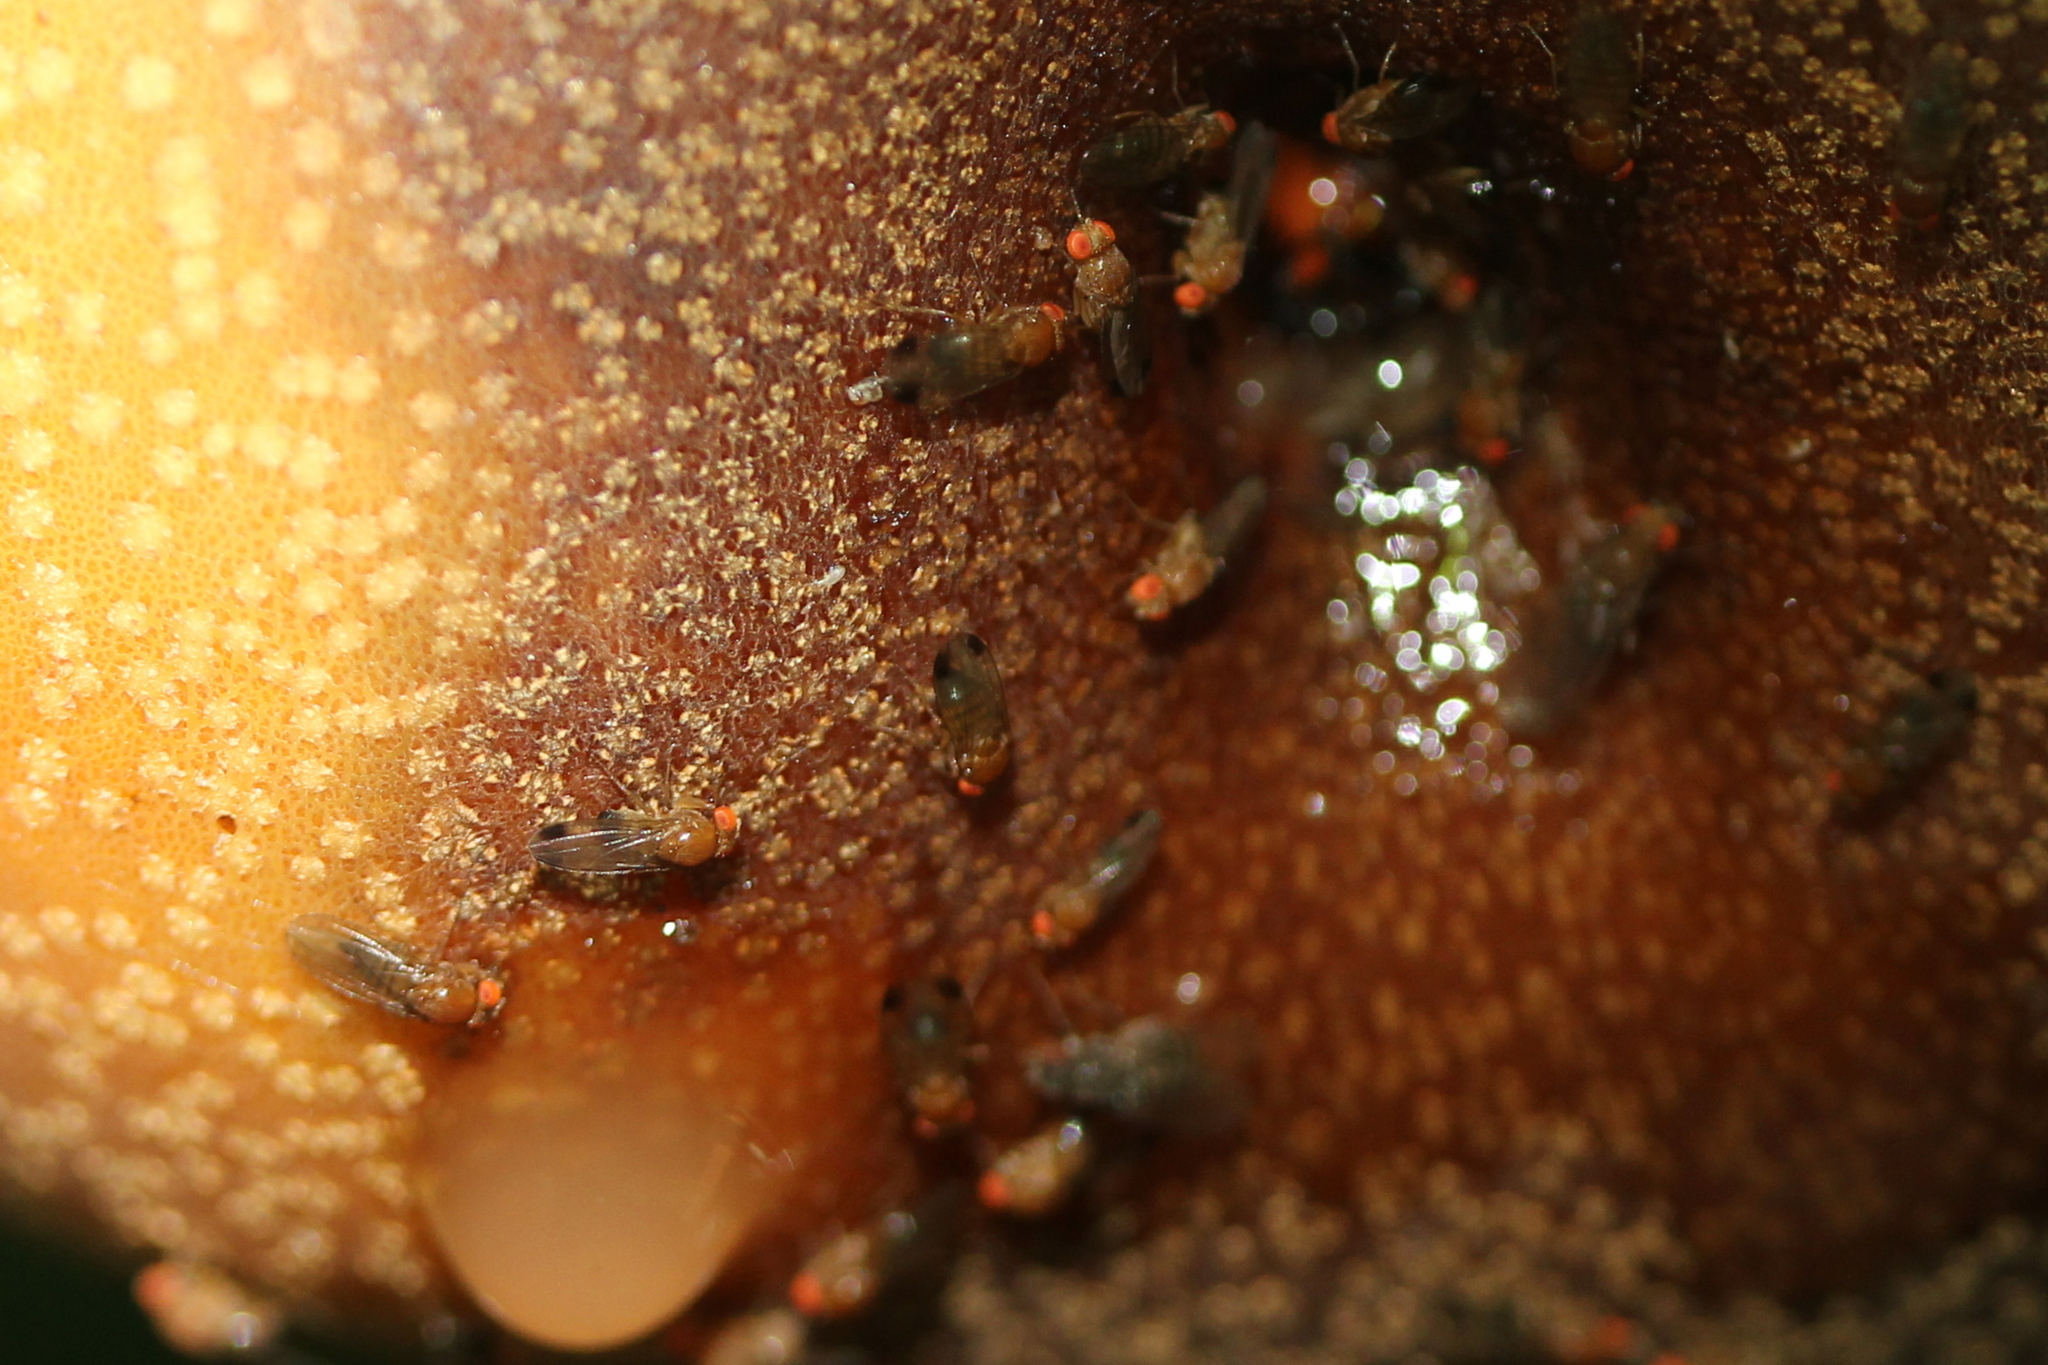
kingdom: Animalia
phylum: Arthropoda
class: Insecta
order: Diptera
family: Drosophilidae
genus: Drosophila
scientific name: Drosophila suzukii
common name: Spotted-wing drosophila
